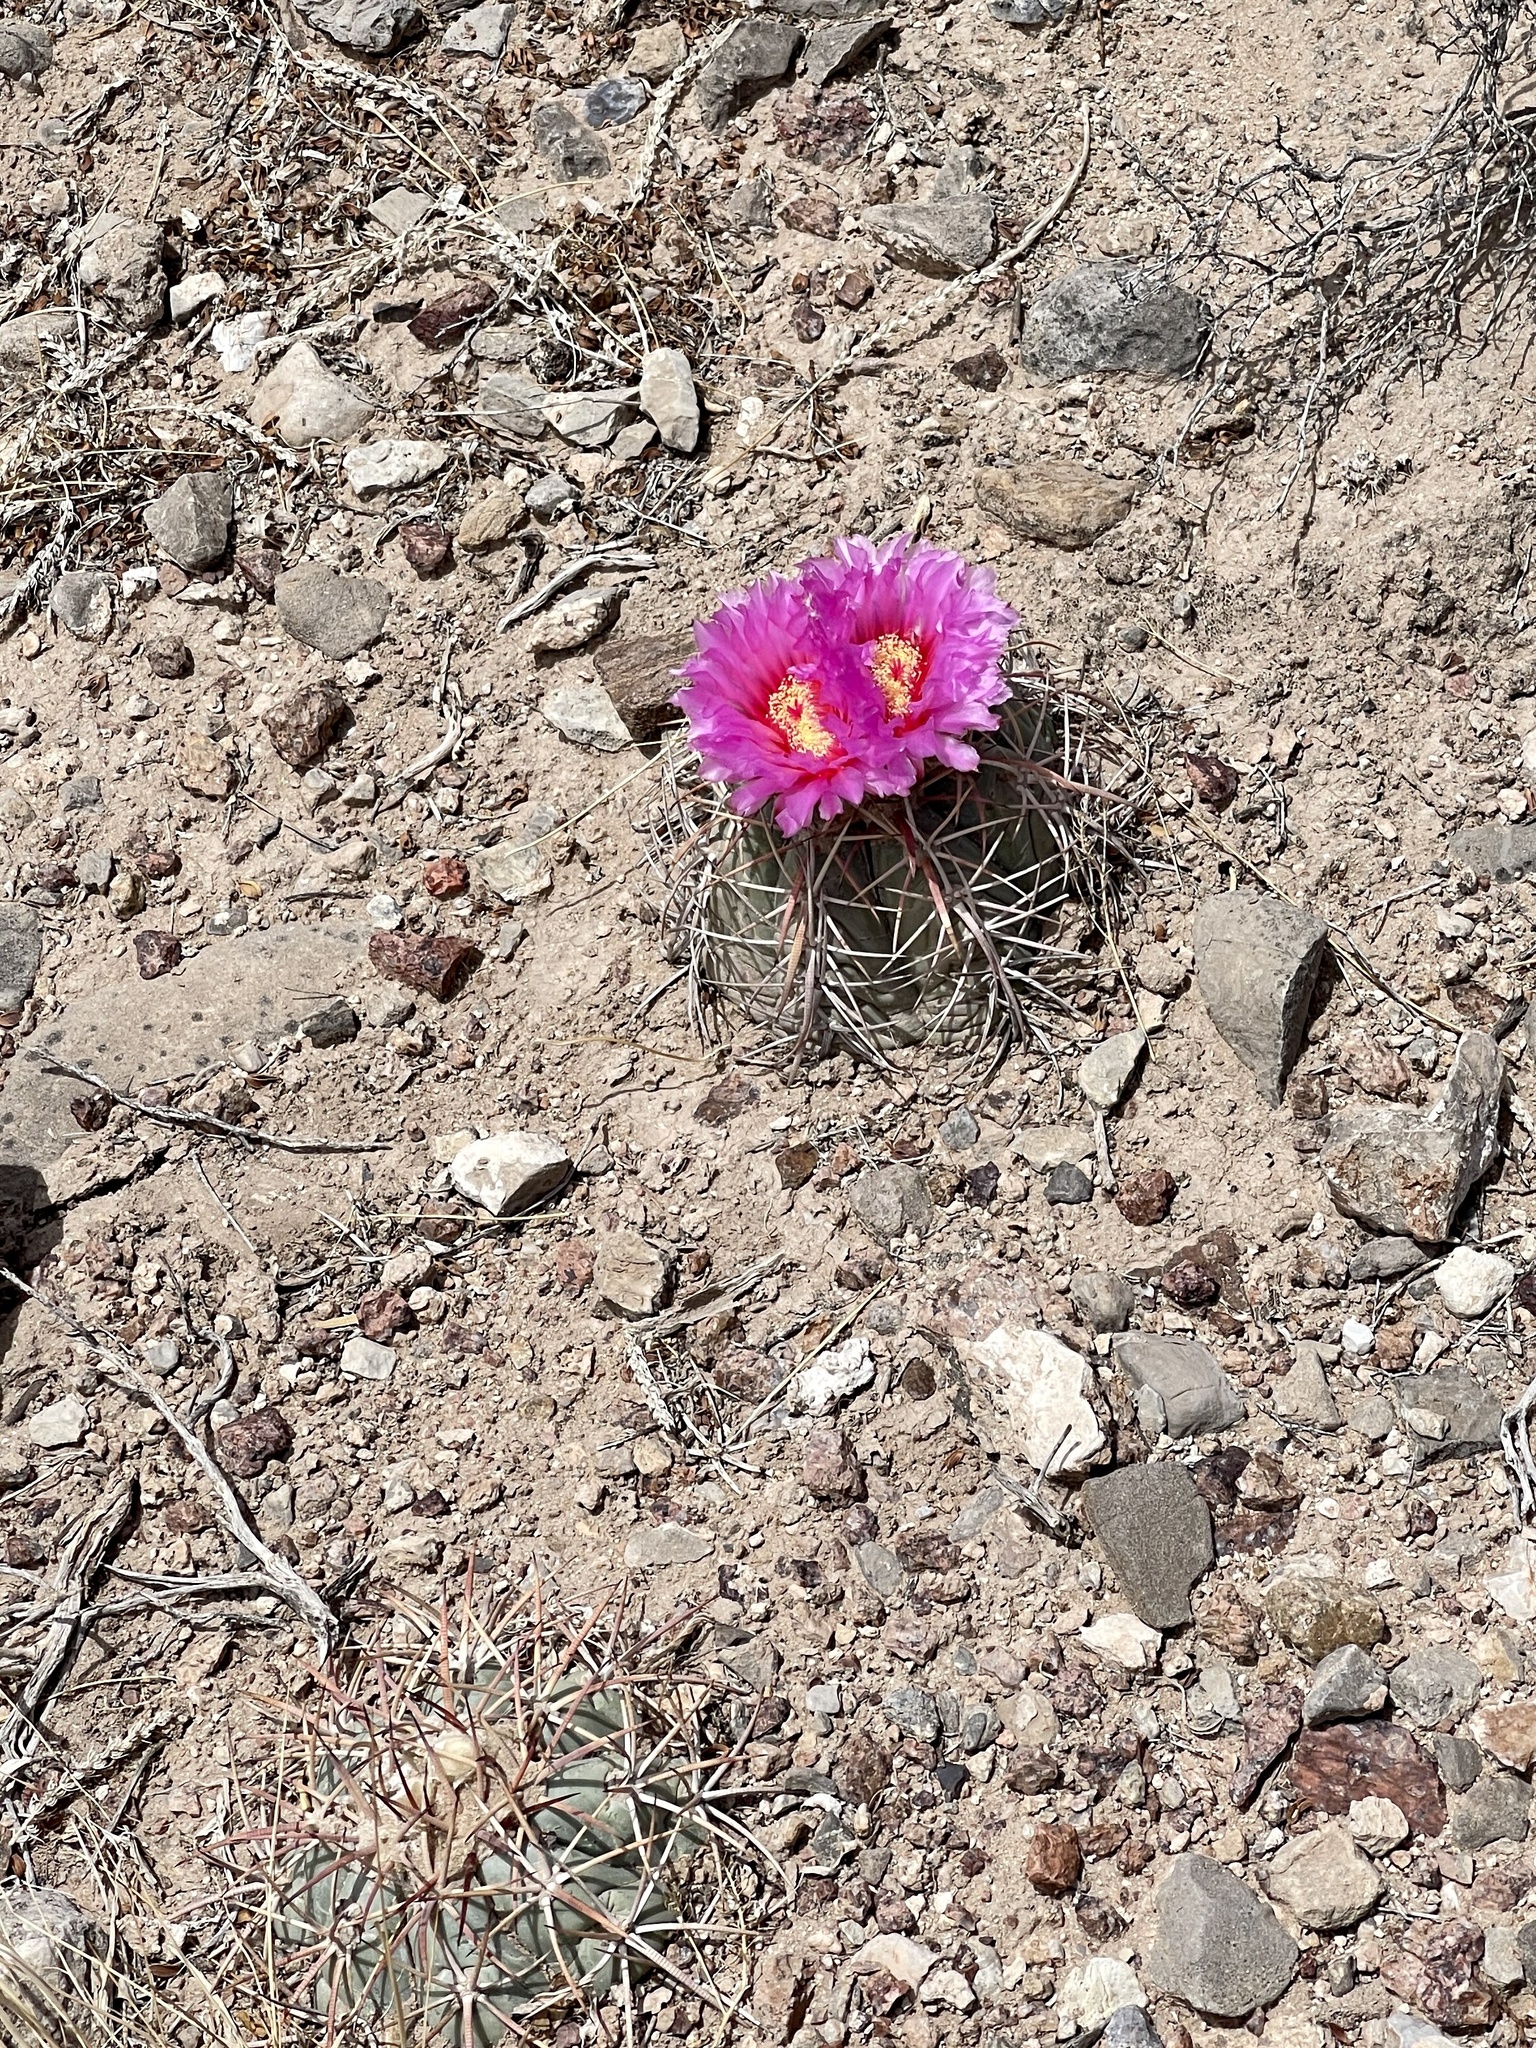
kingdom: Plantae
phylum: Tracheophyta
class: Magnoliopsida
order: Caryophyllales
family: Cactaceae
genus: Echinocactus
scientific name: Echinocactus horizonthalonius
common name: Devilshead
